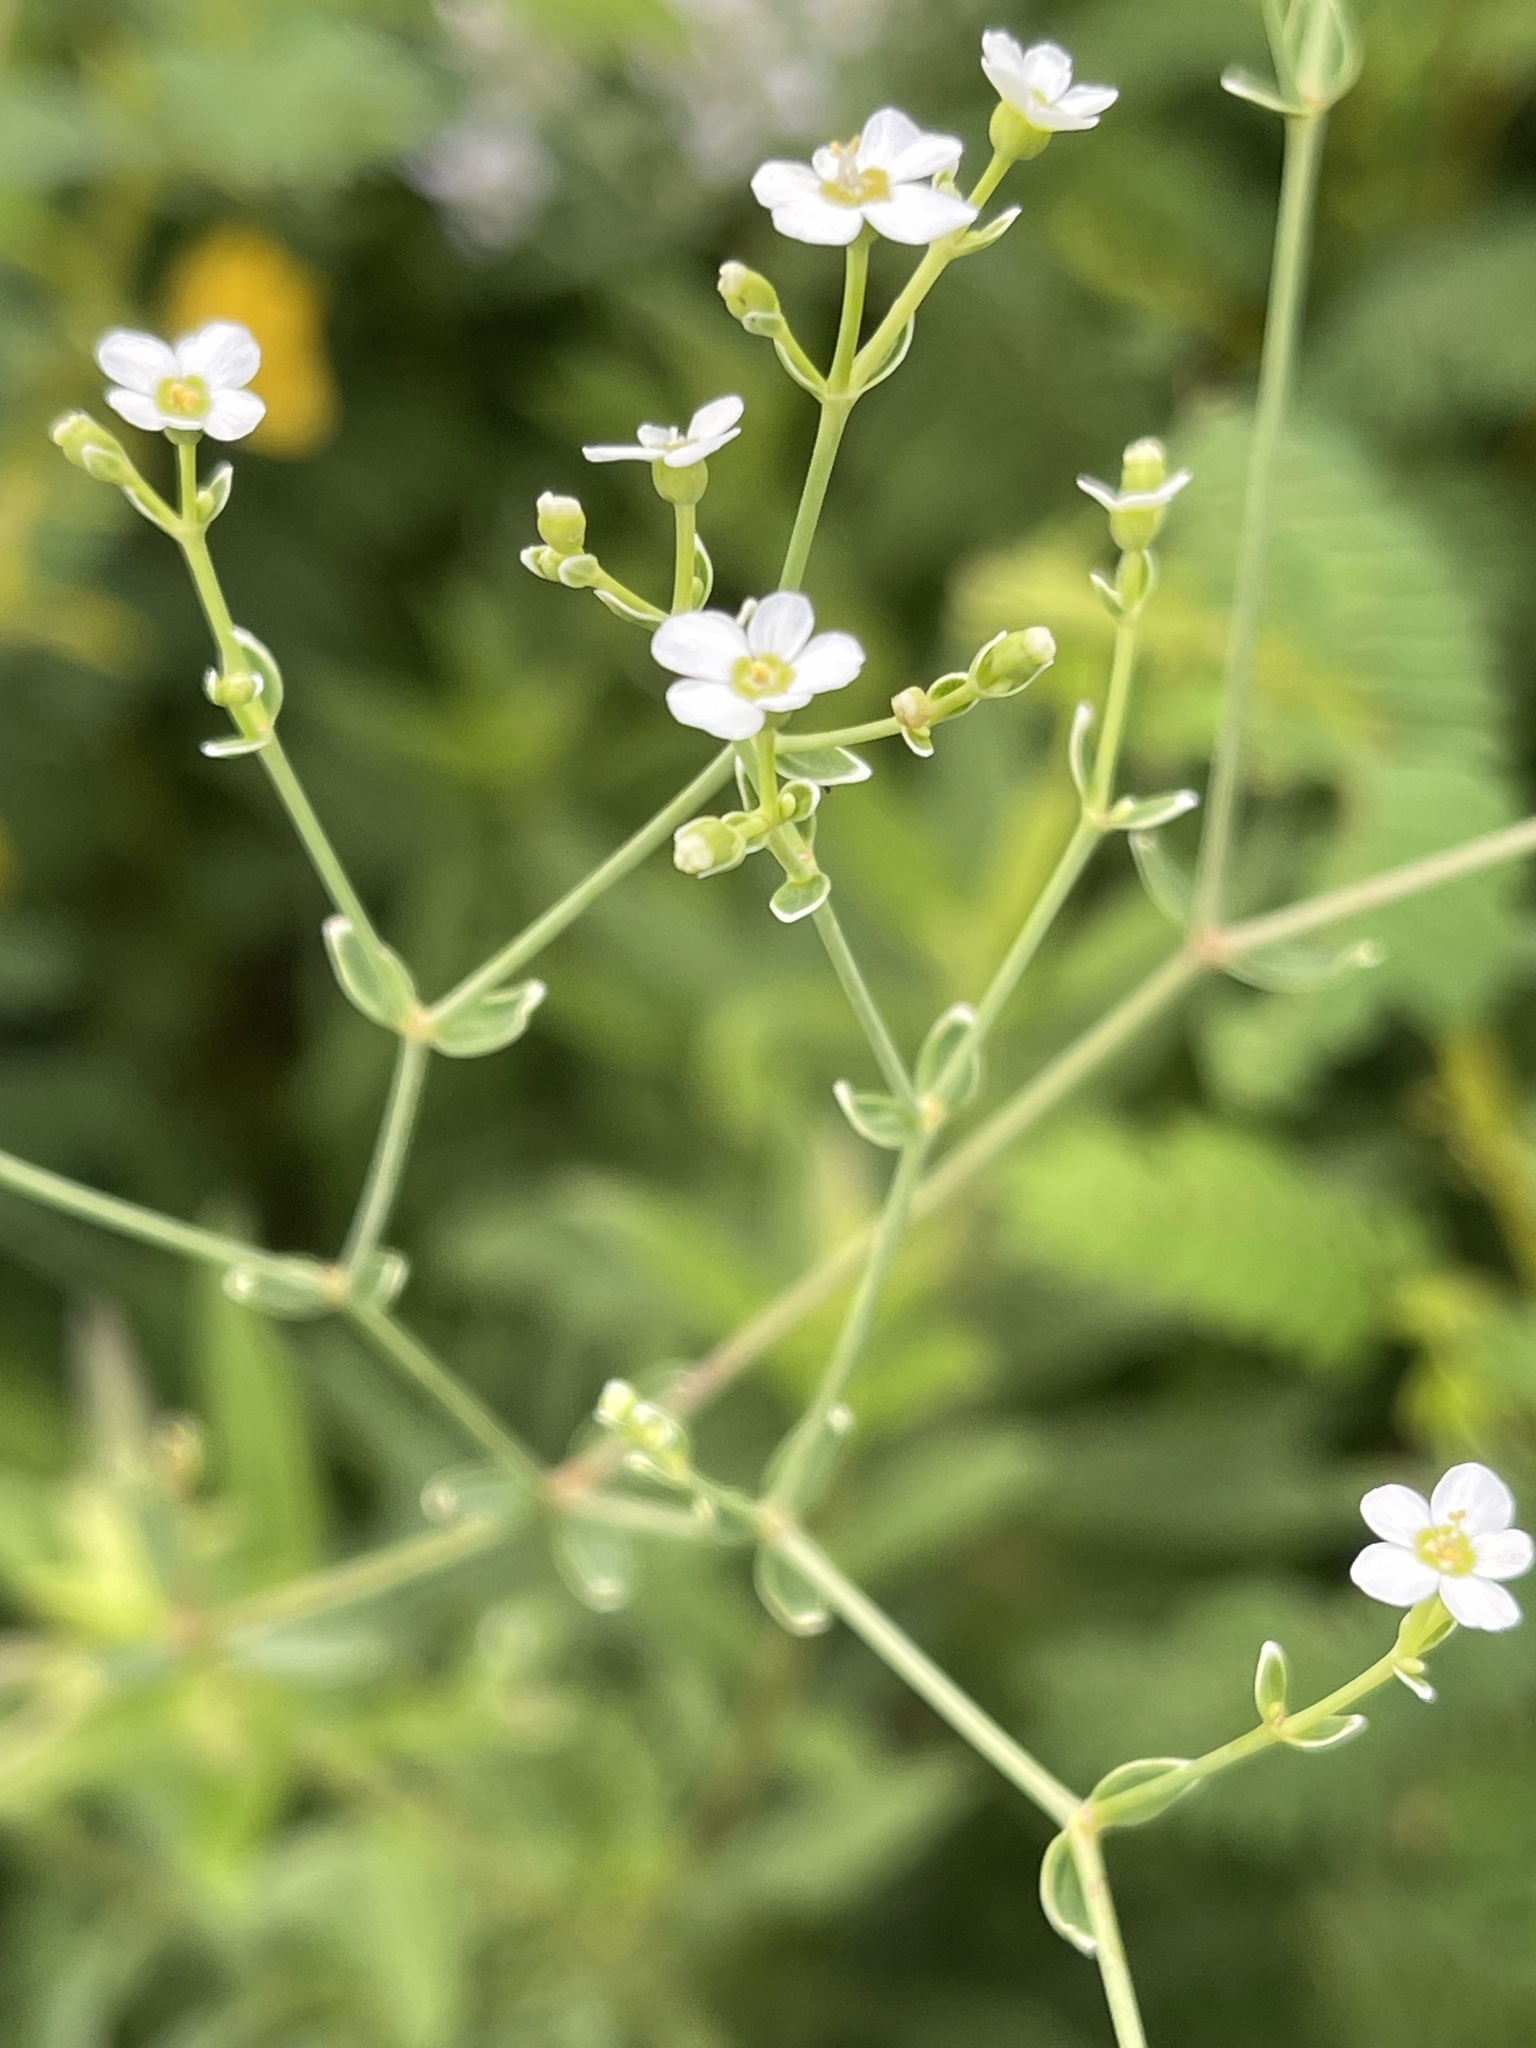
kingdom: Plantae
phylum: Tracheophyta
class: Magnoliopsida
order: Malpighiales
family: Euphorbiaceae
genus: Euphorbia
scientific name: Euphorbia corollata
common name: Flowering spurge
